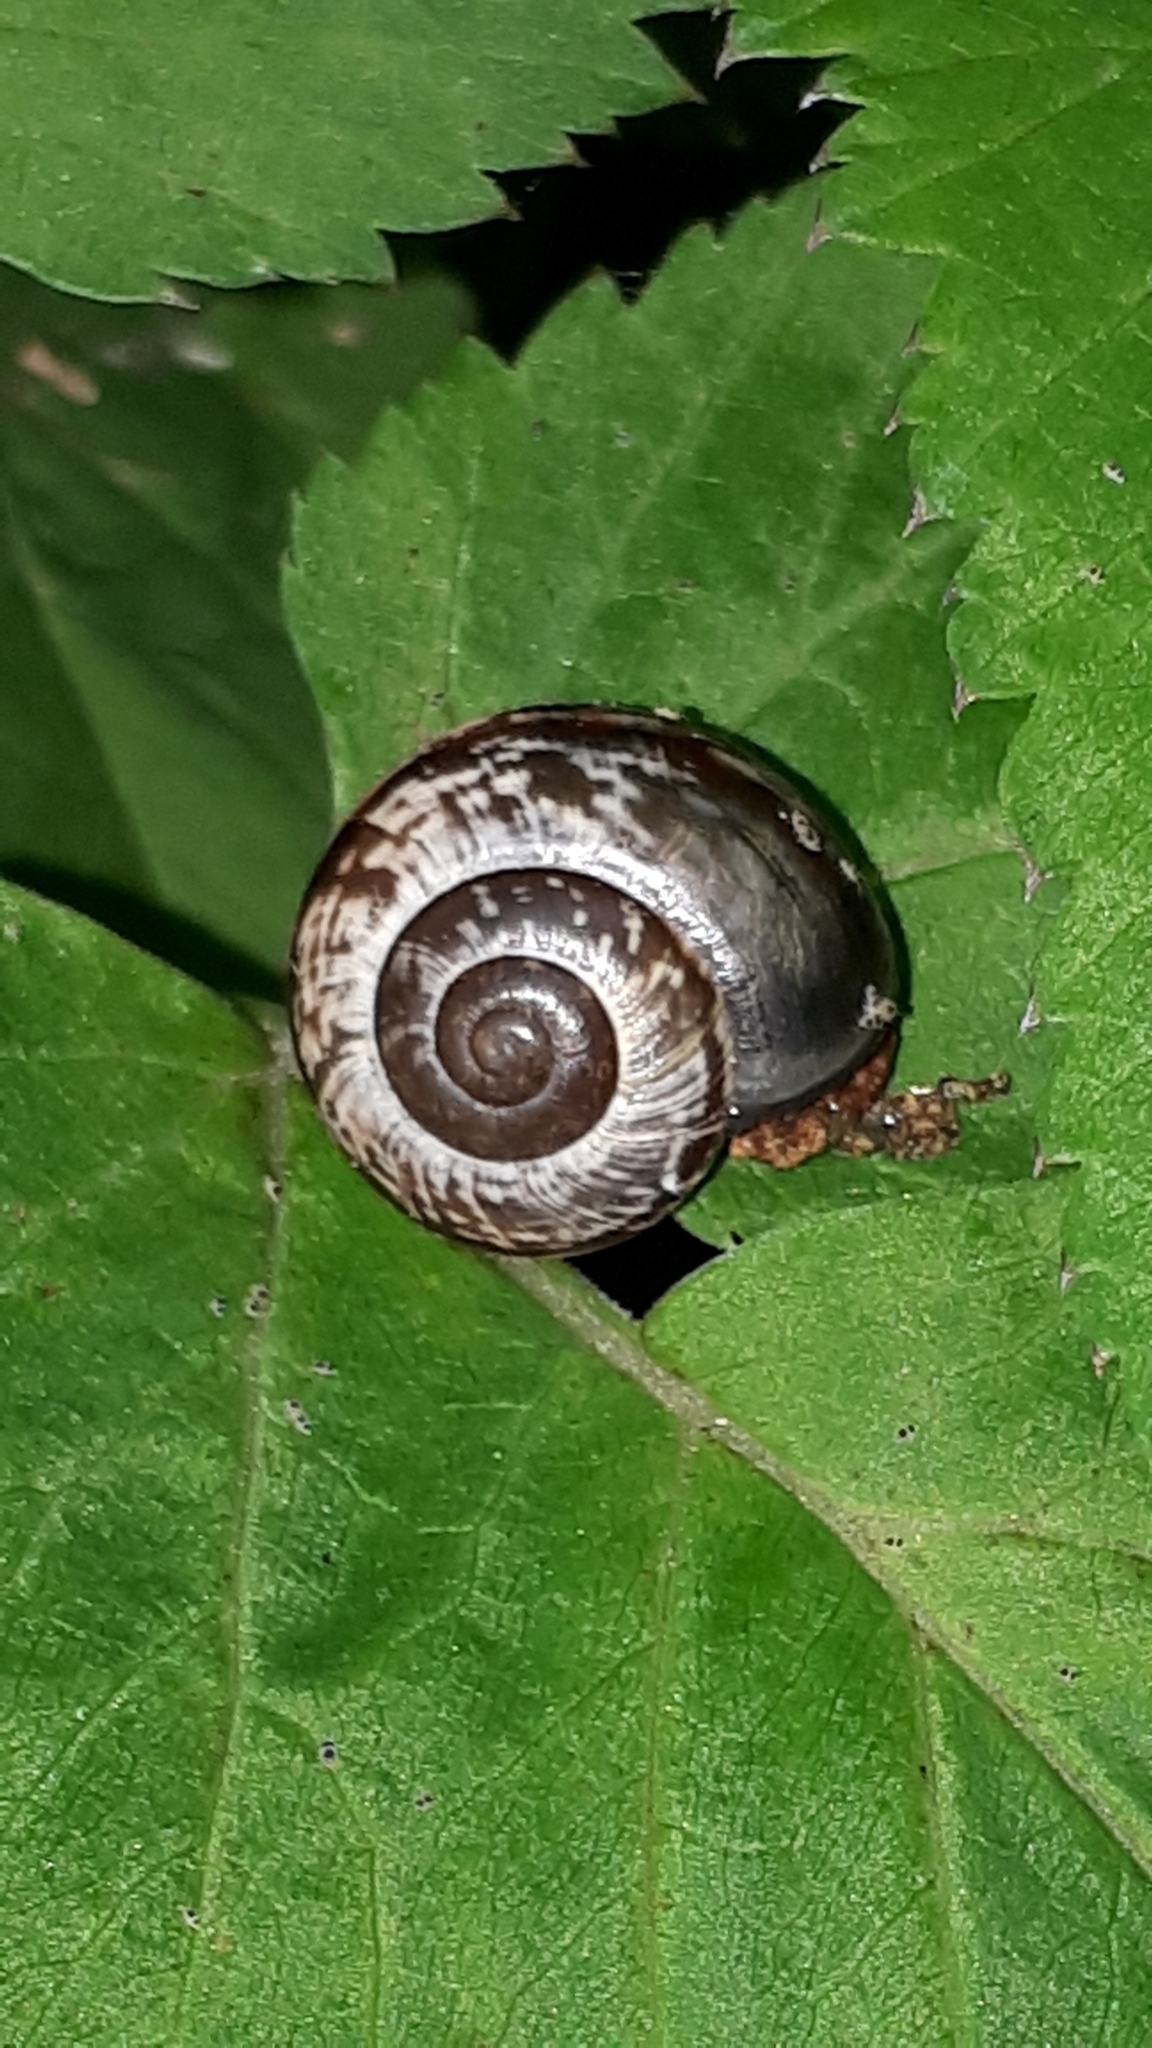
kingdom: Animalia
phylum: Mollusca
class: Gastropoda
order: Stylommatophora
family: Helicidae
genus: Arianta
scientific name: Arianta arbustorum
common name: Copse snail
